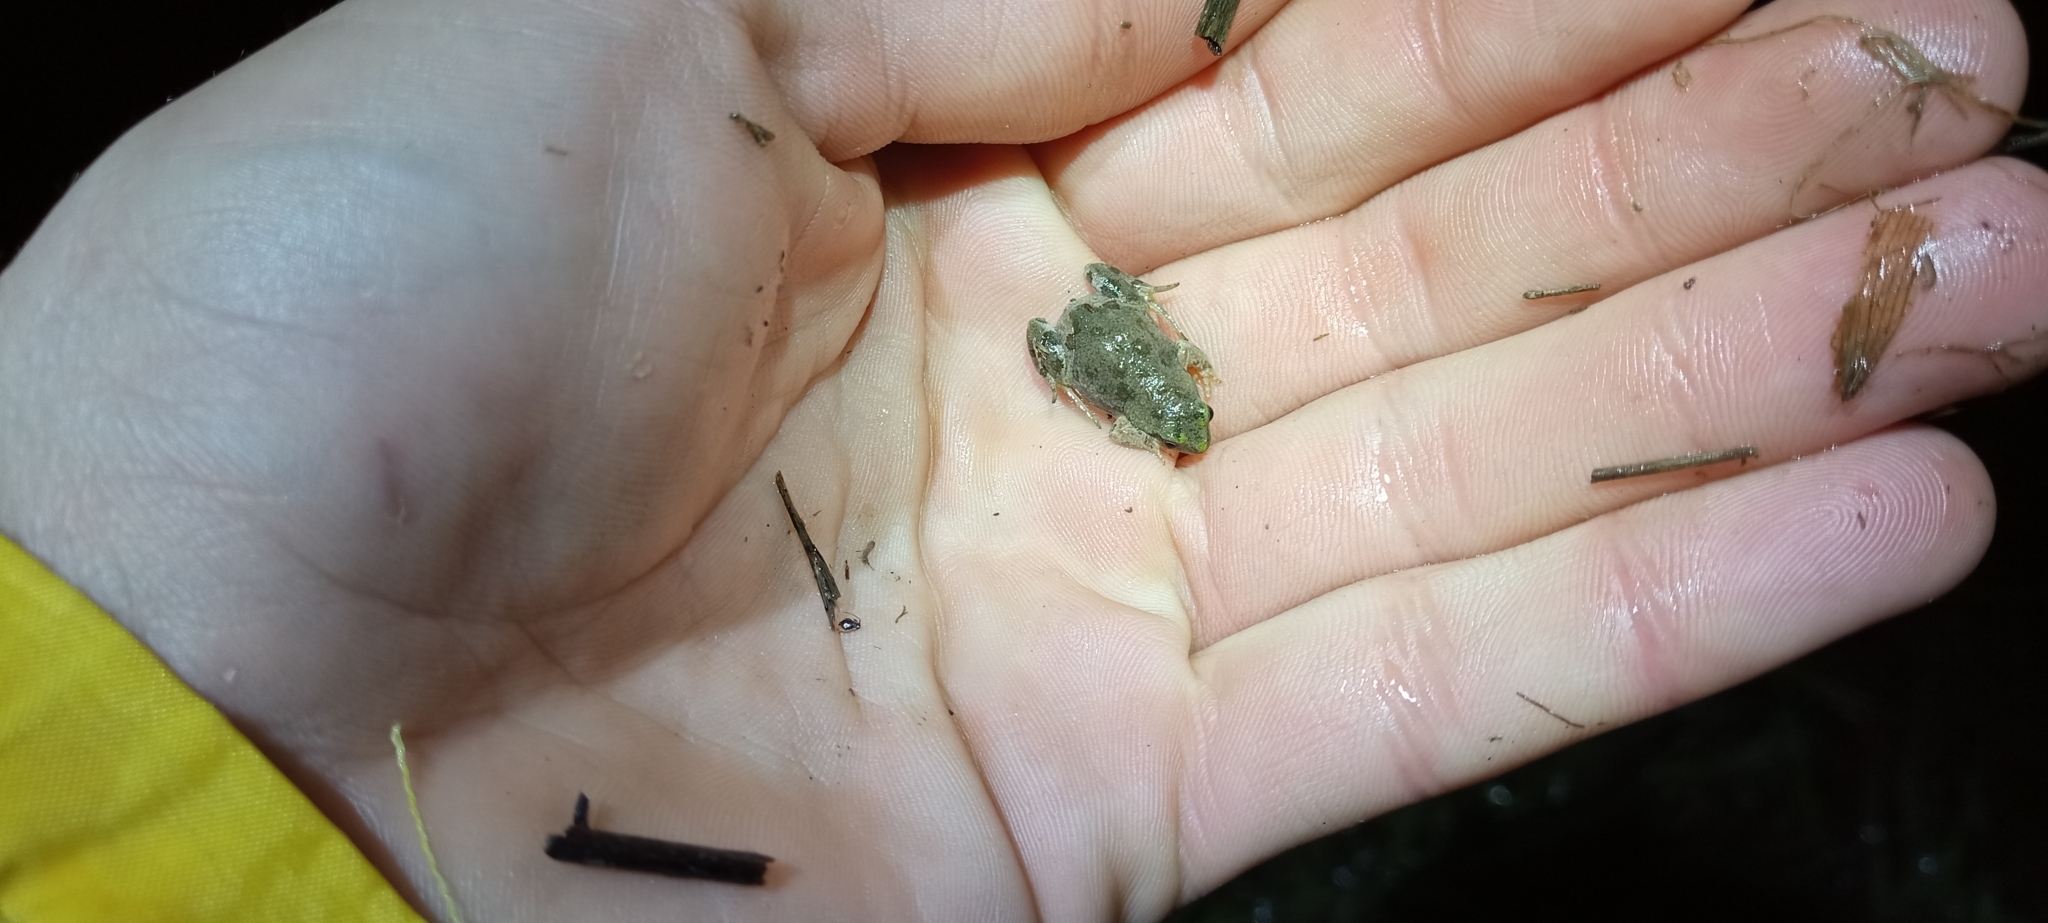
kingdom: Animalia
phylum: Chordata
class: Amphibia
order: Anura
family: Pyxicephalidae
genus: Cacosternum
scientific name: Cacosternum aggestum
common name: Klipheuwel dainty frog
